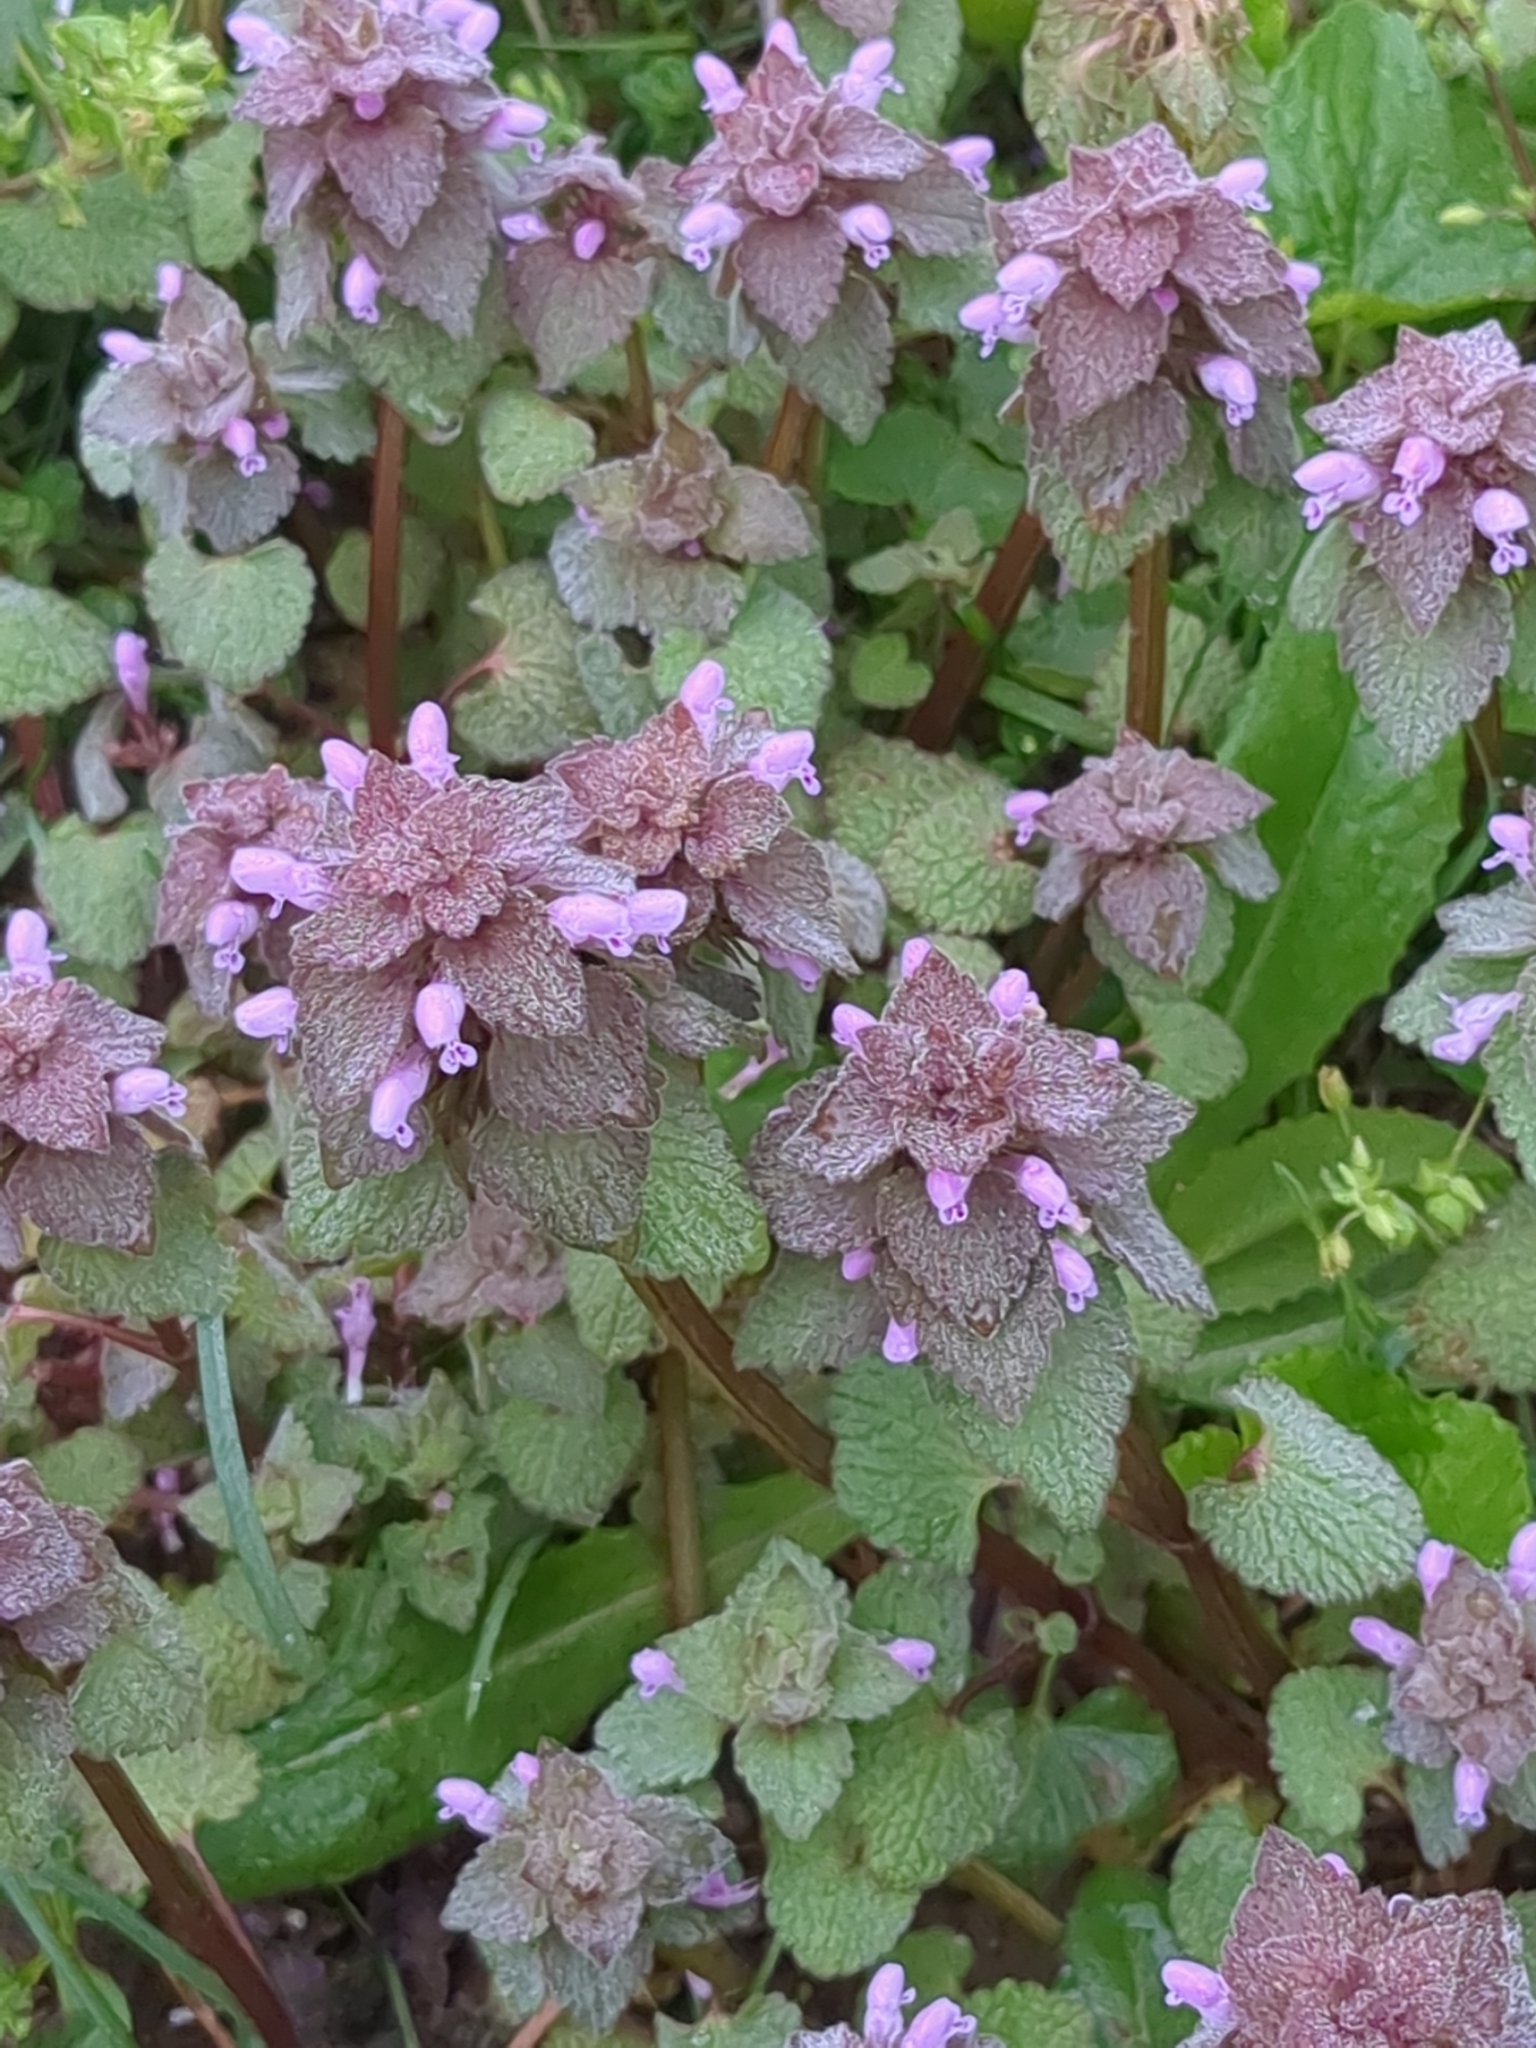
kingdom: Plantae
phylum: Tracheophyta
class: Magnoliopsida
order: Lamiales
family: Lamiaceae
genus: Lamium
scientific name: Lamium purpureum
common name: Red dead-nettle
